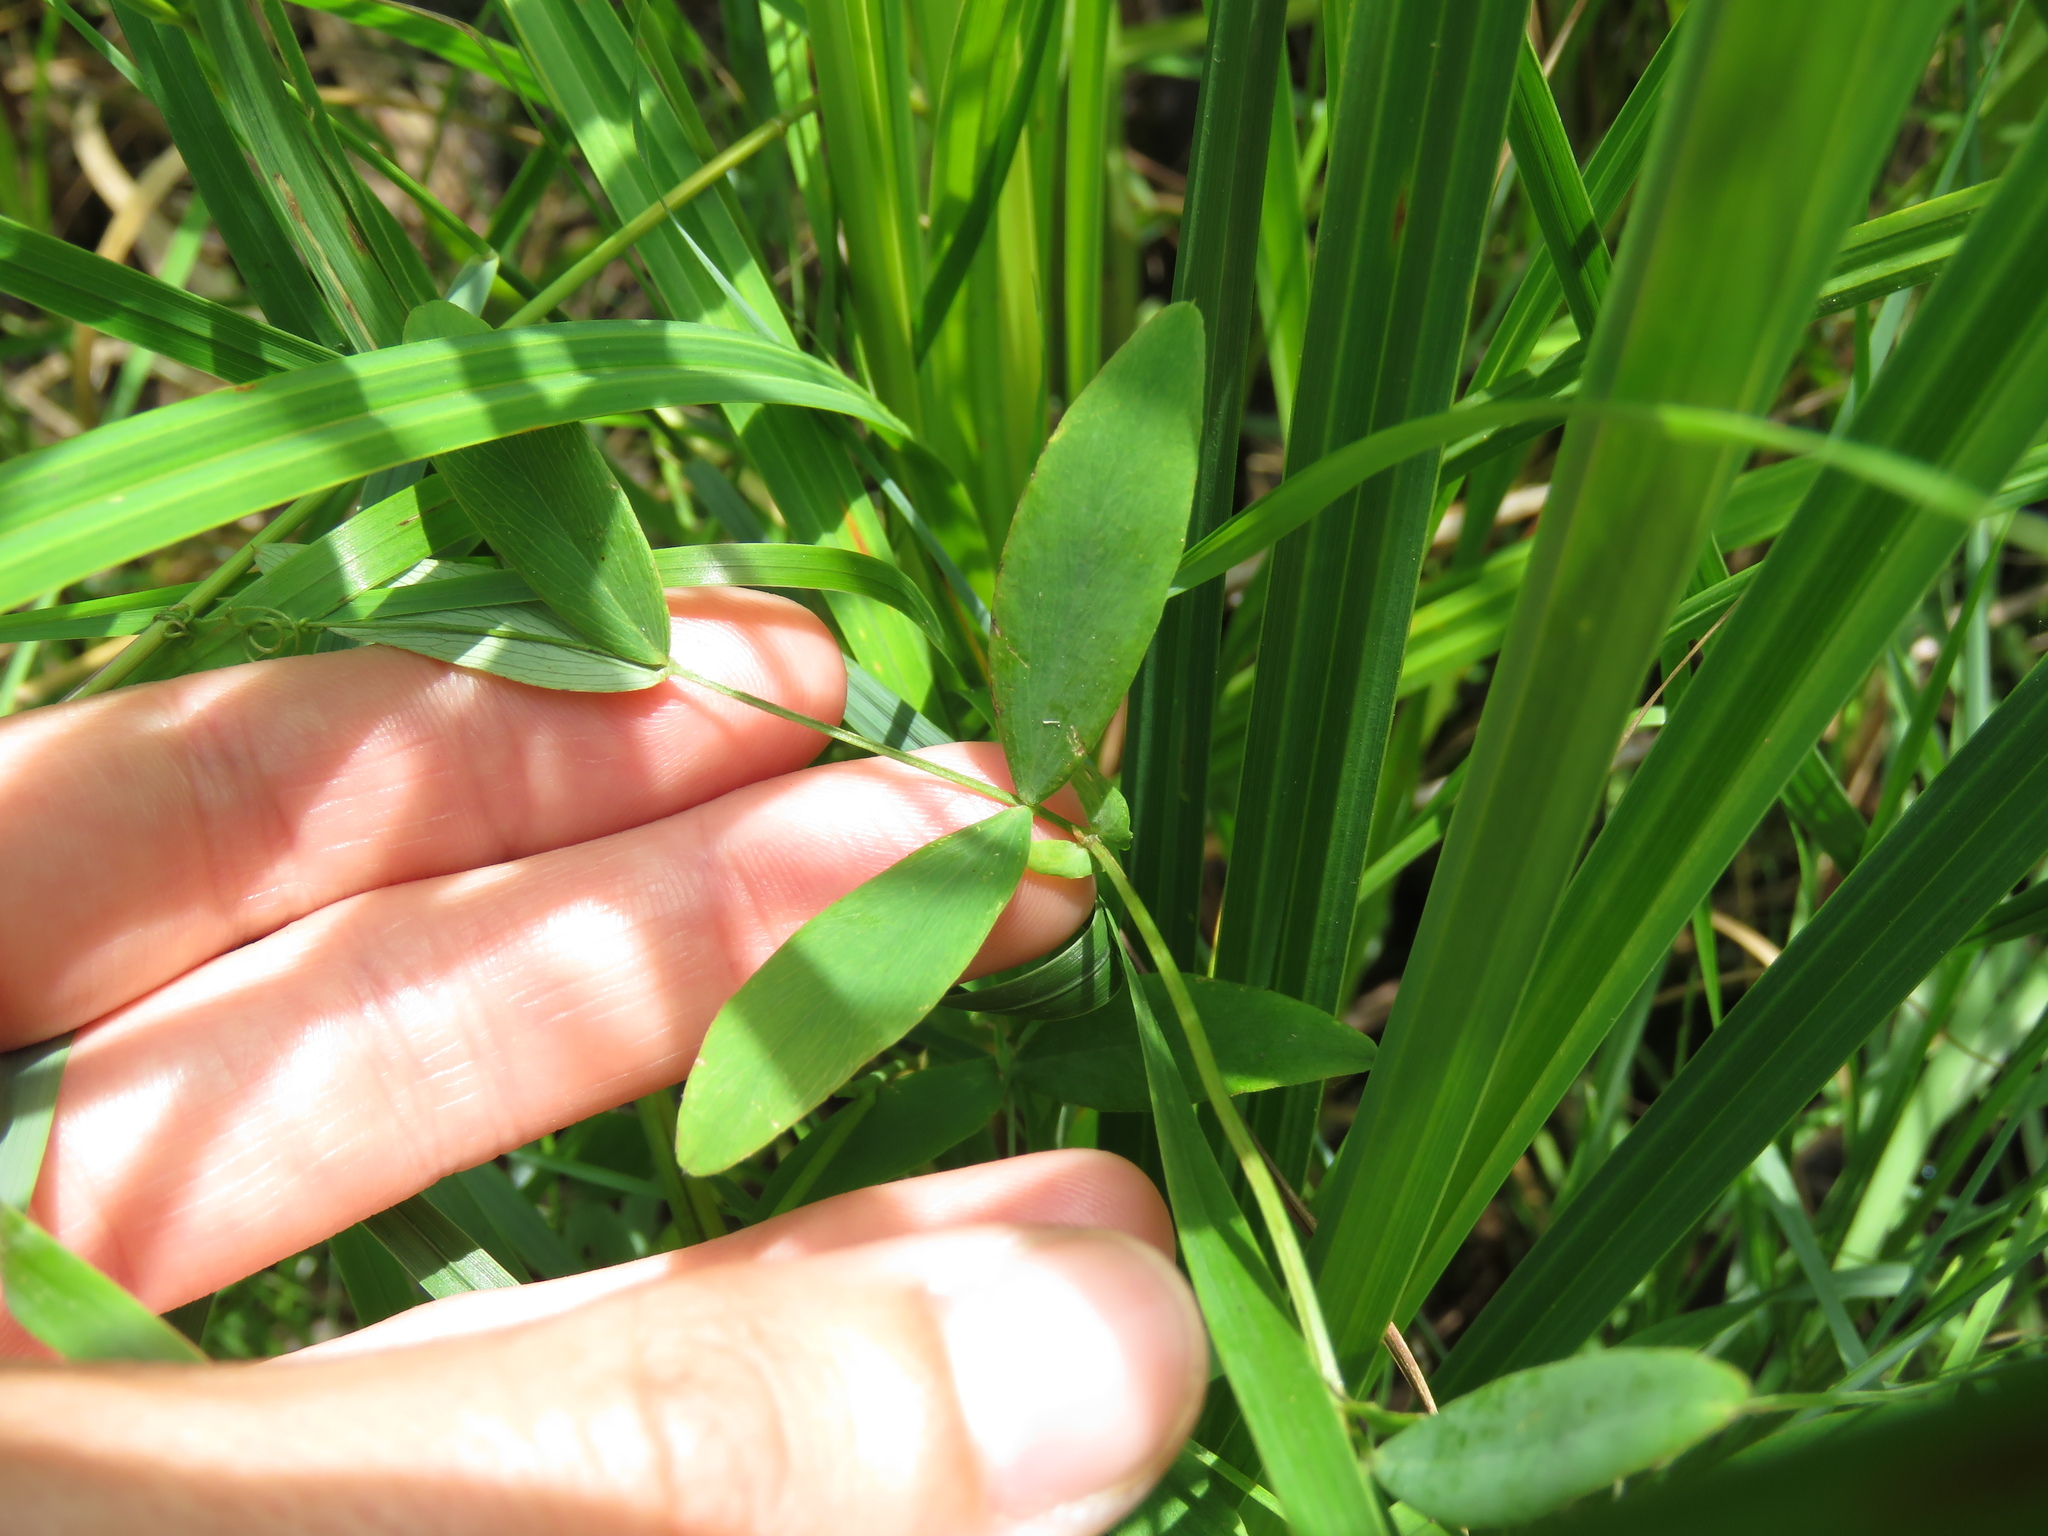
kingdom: Plantae
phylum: Tracheophyta
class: Magnoliopsida
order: Fabales
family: Fabaceae
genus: Lathyrus
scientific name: Lathyrus ochroleucus
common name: Pale vetchling
